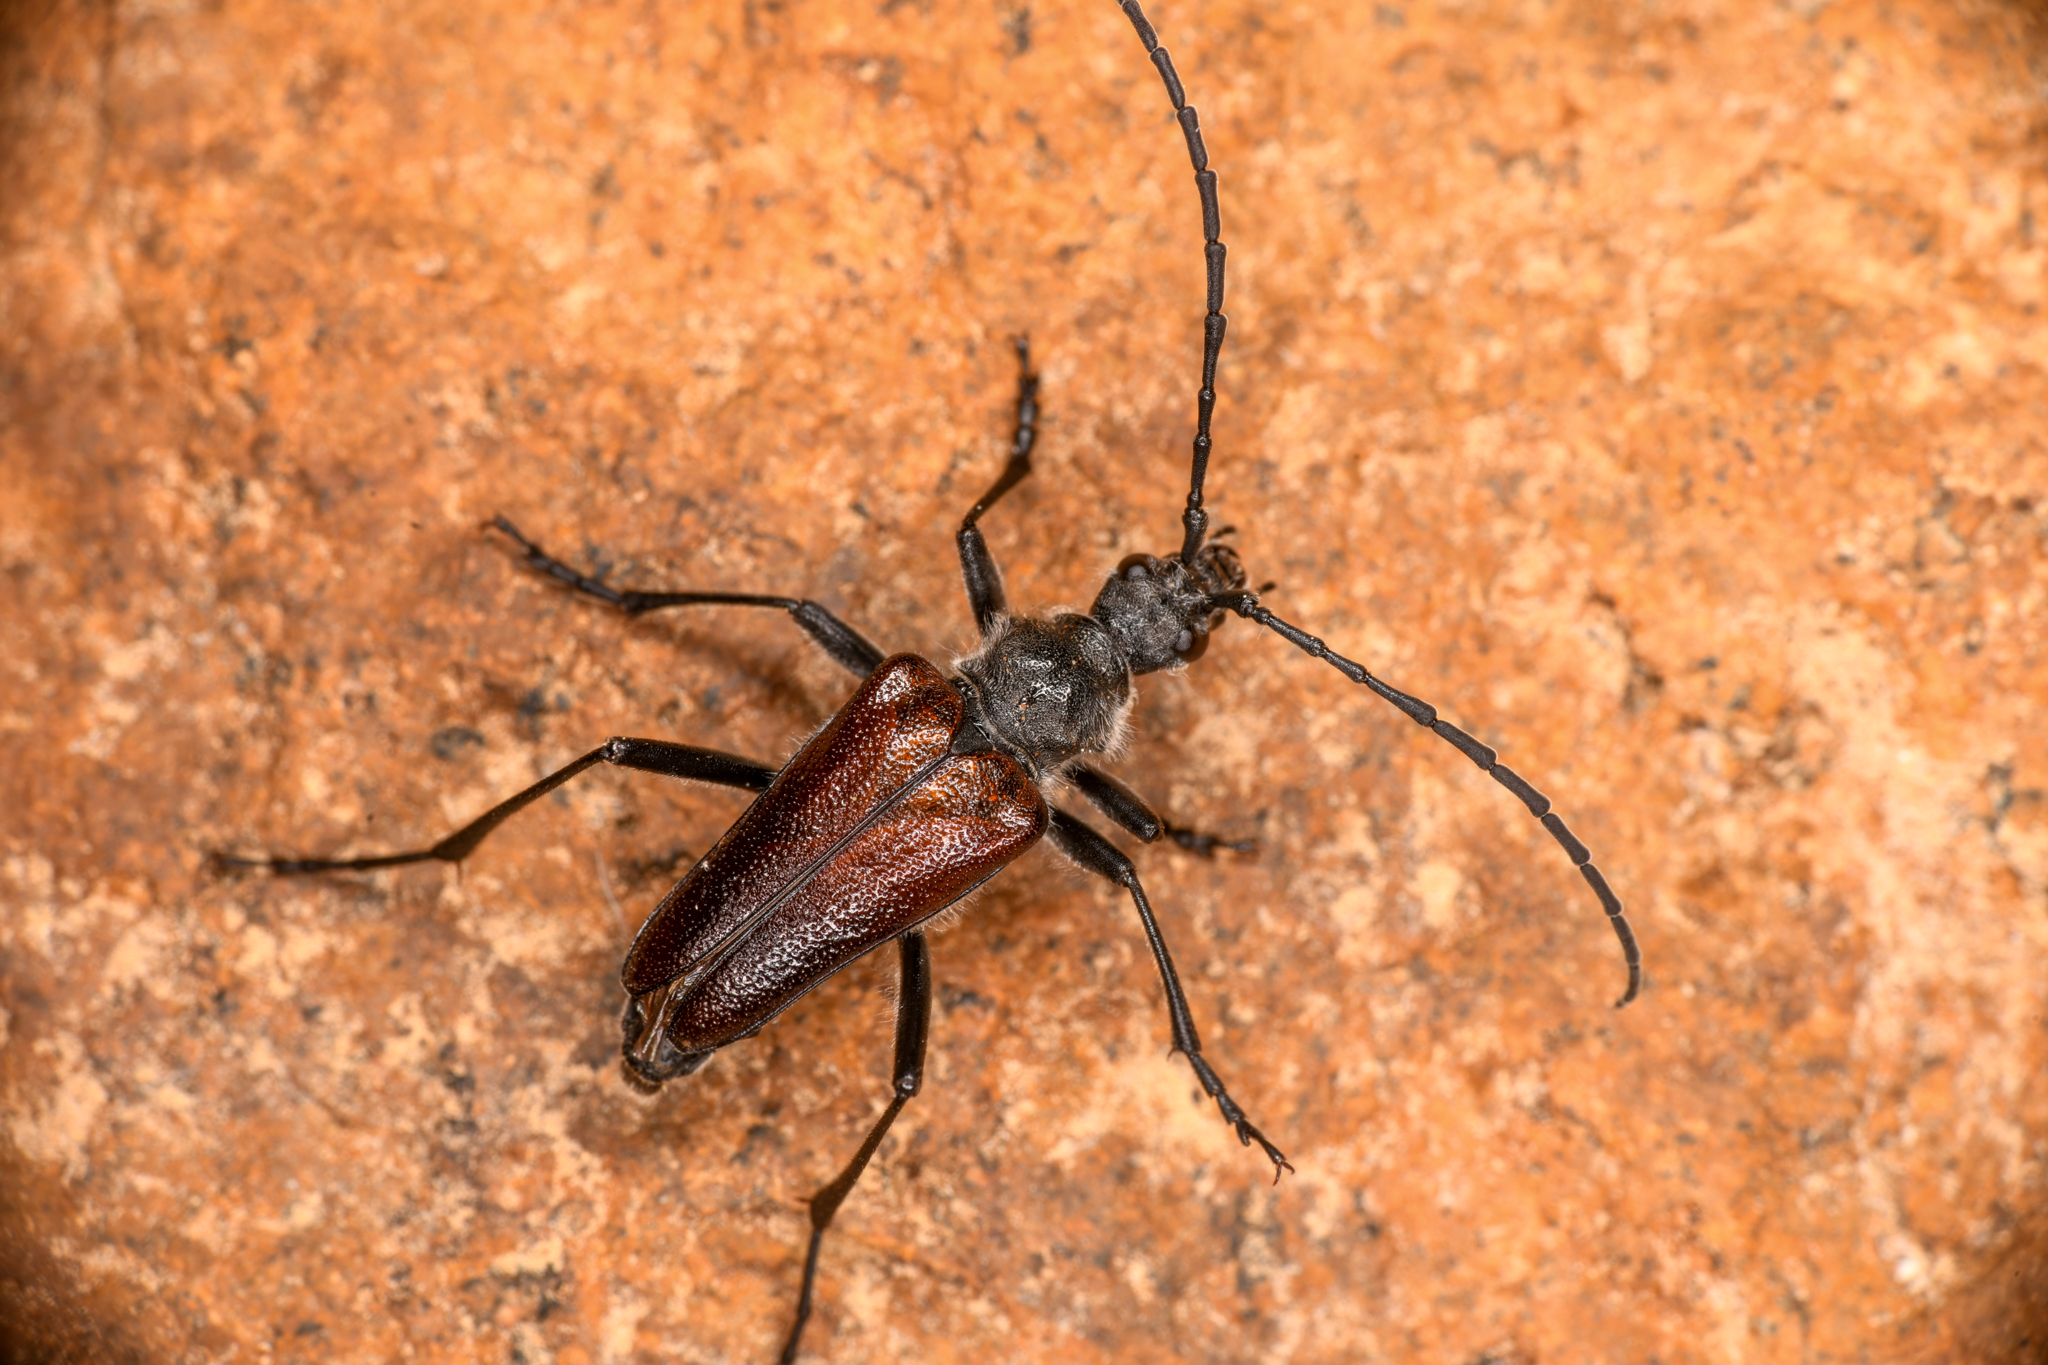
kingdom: Animalia
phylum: Arthropoda
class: Insecta
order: Coleoptera
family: Cerambycidae
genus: Pachyta
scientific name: Pachyta lamed
